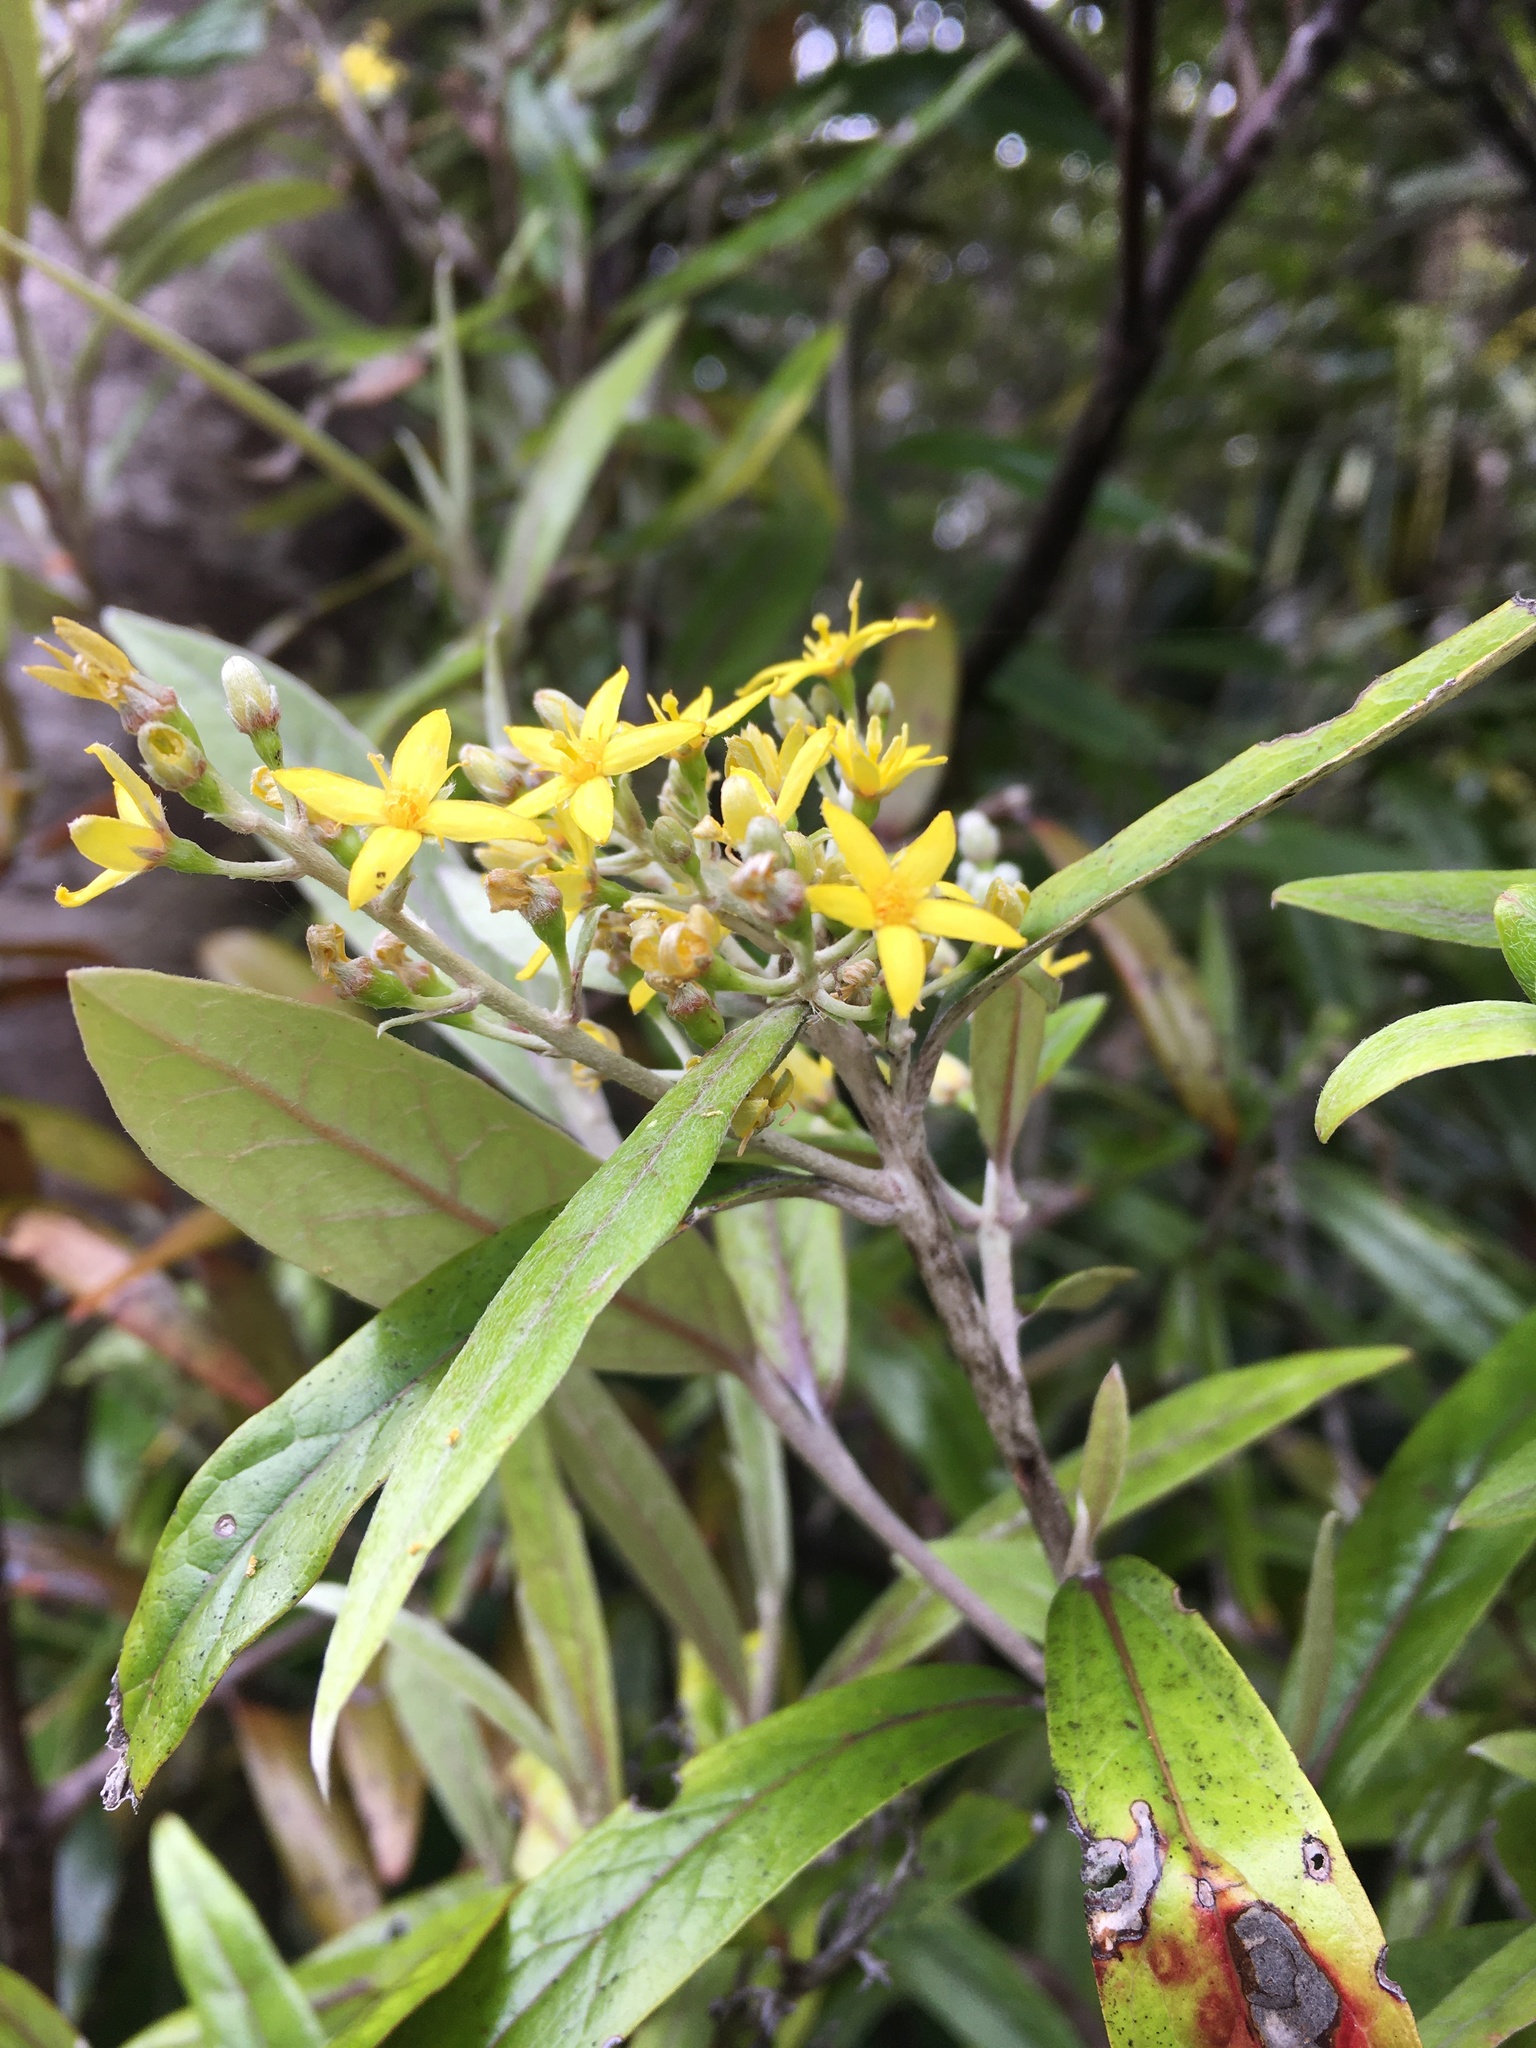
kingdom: Plantae
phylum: Tracheophyta
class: Magnoliopsida
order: Asterales
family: Argophyllaceae
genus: Corokia
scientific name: Corokia buddleioides
